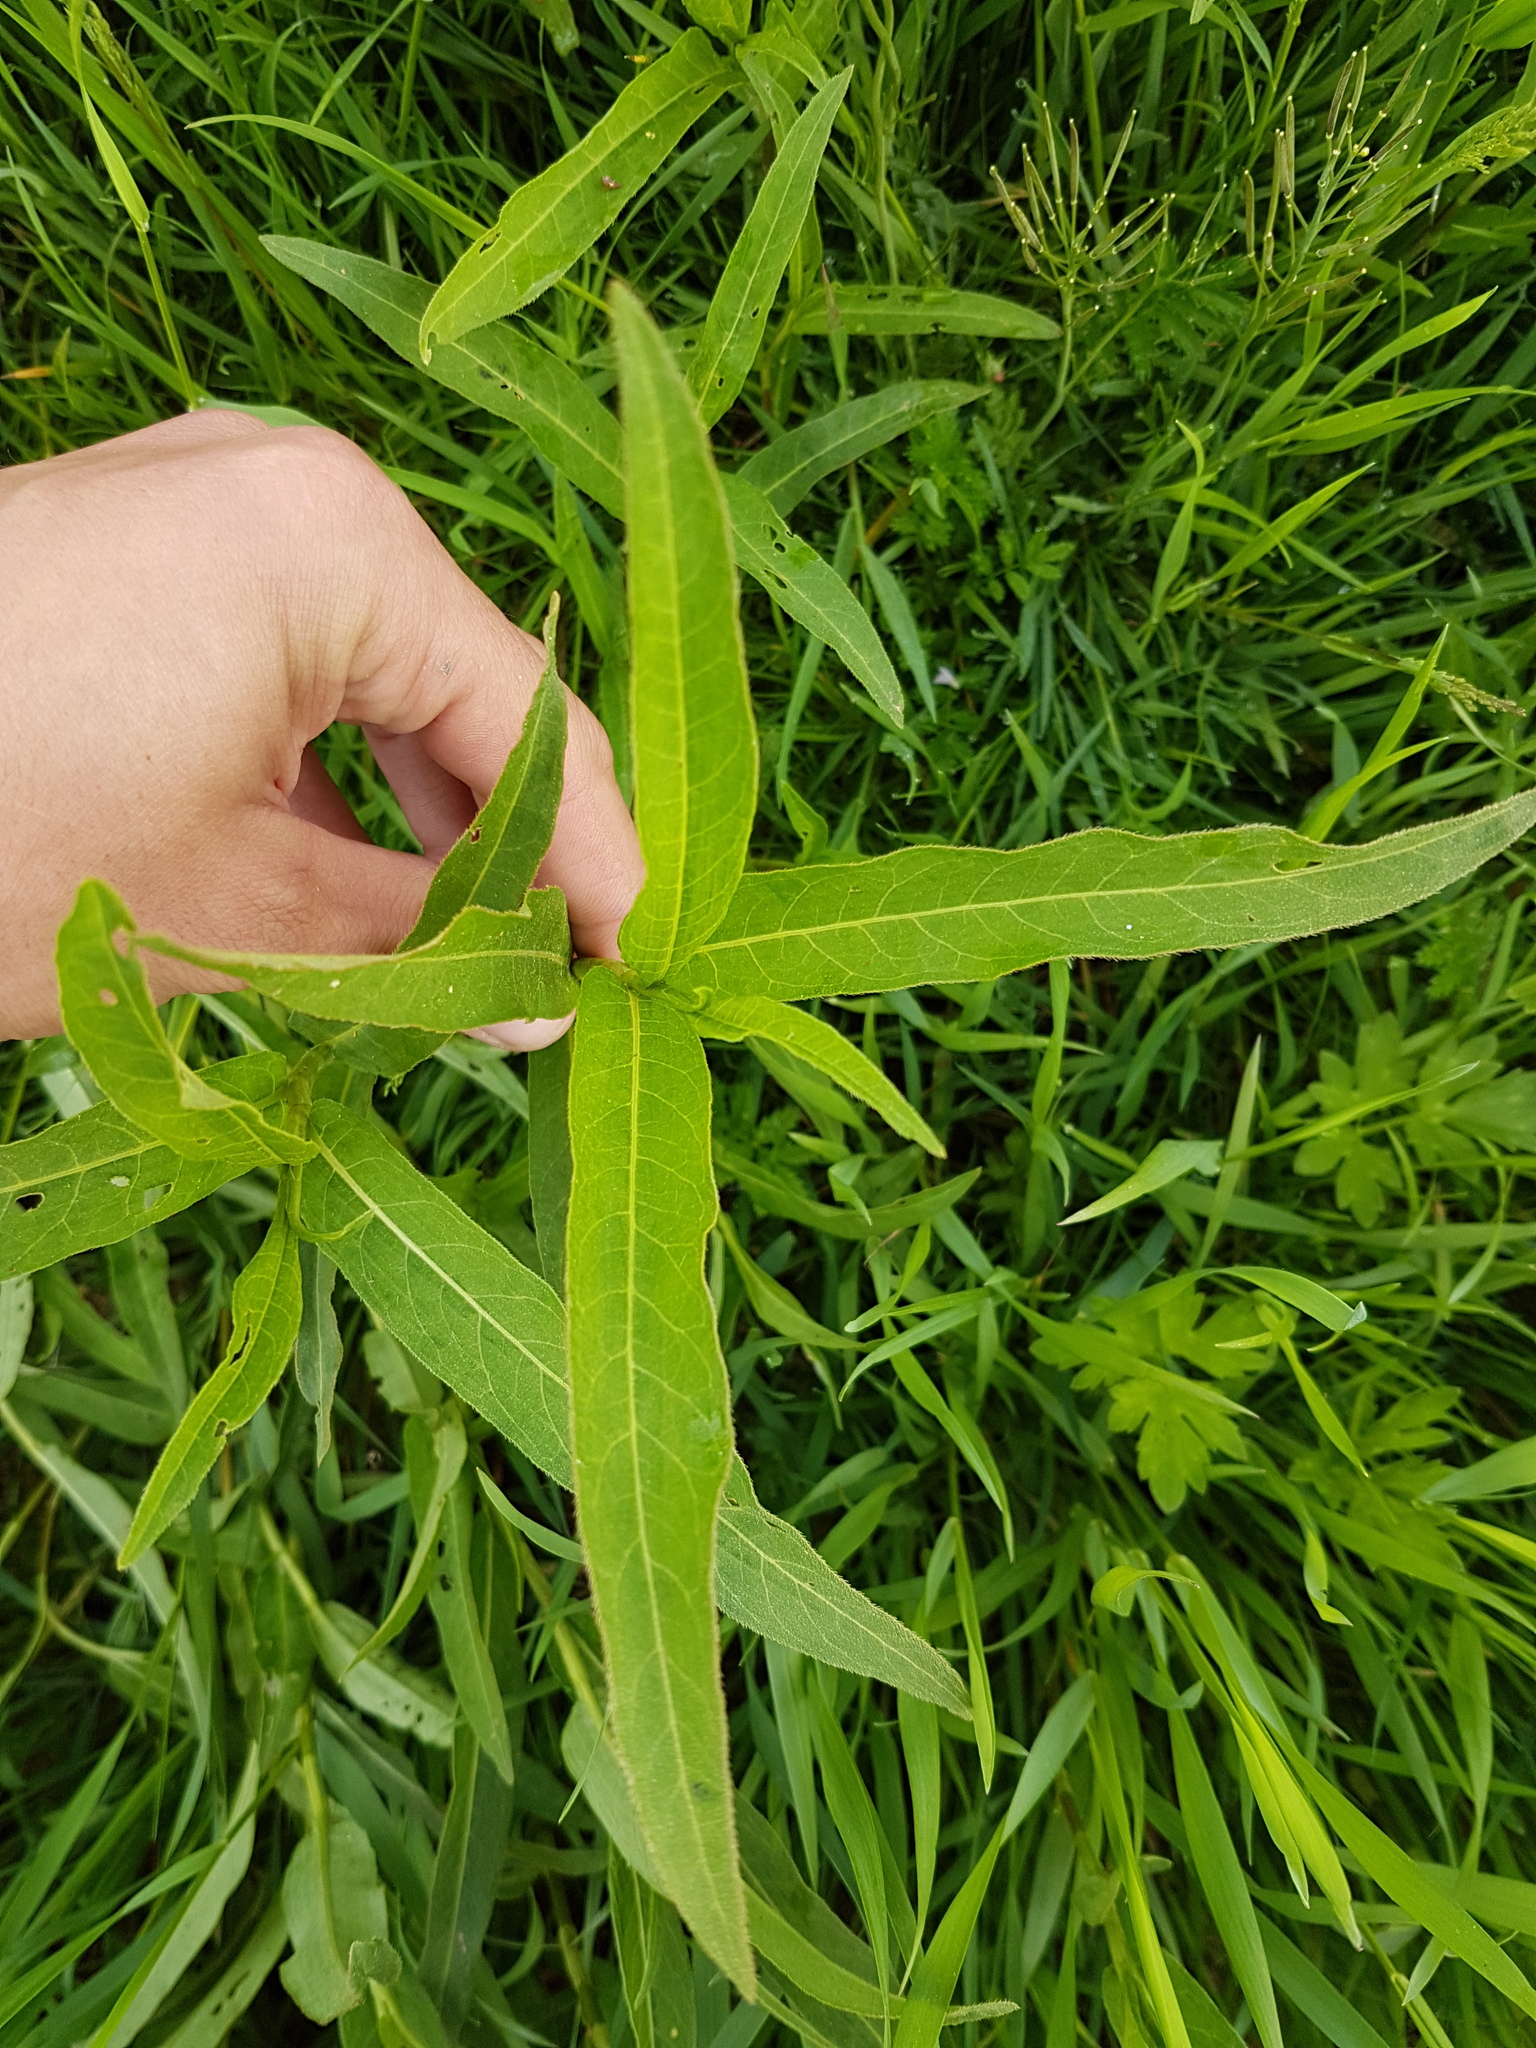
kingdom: Plantae
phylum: Tracheophyta
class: Magnoliopsida
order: Caryophyllales
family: Polygonaceae
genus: Persicaria
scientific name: Persicaria amphibia
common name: Amphibious bistort
